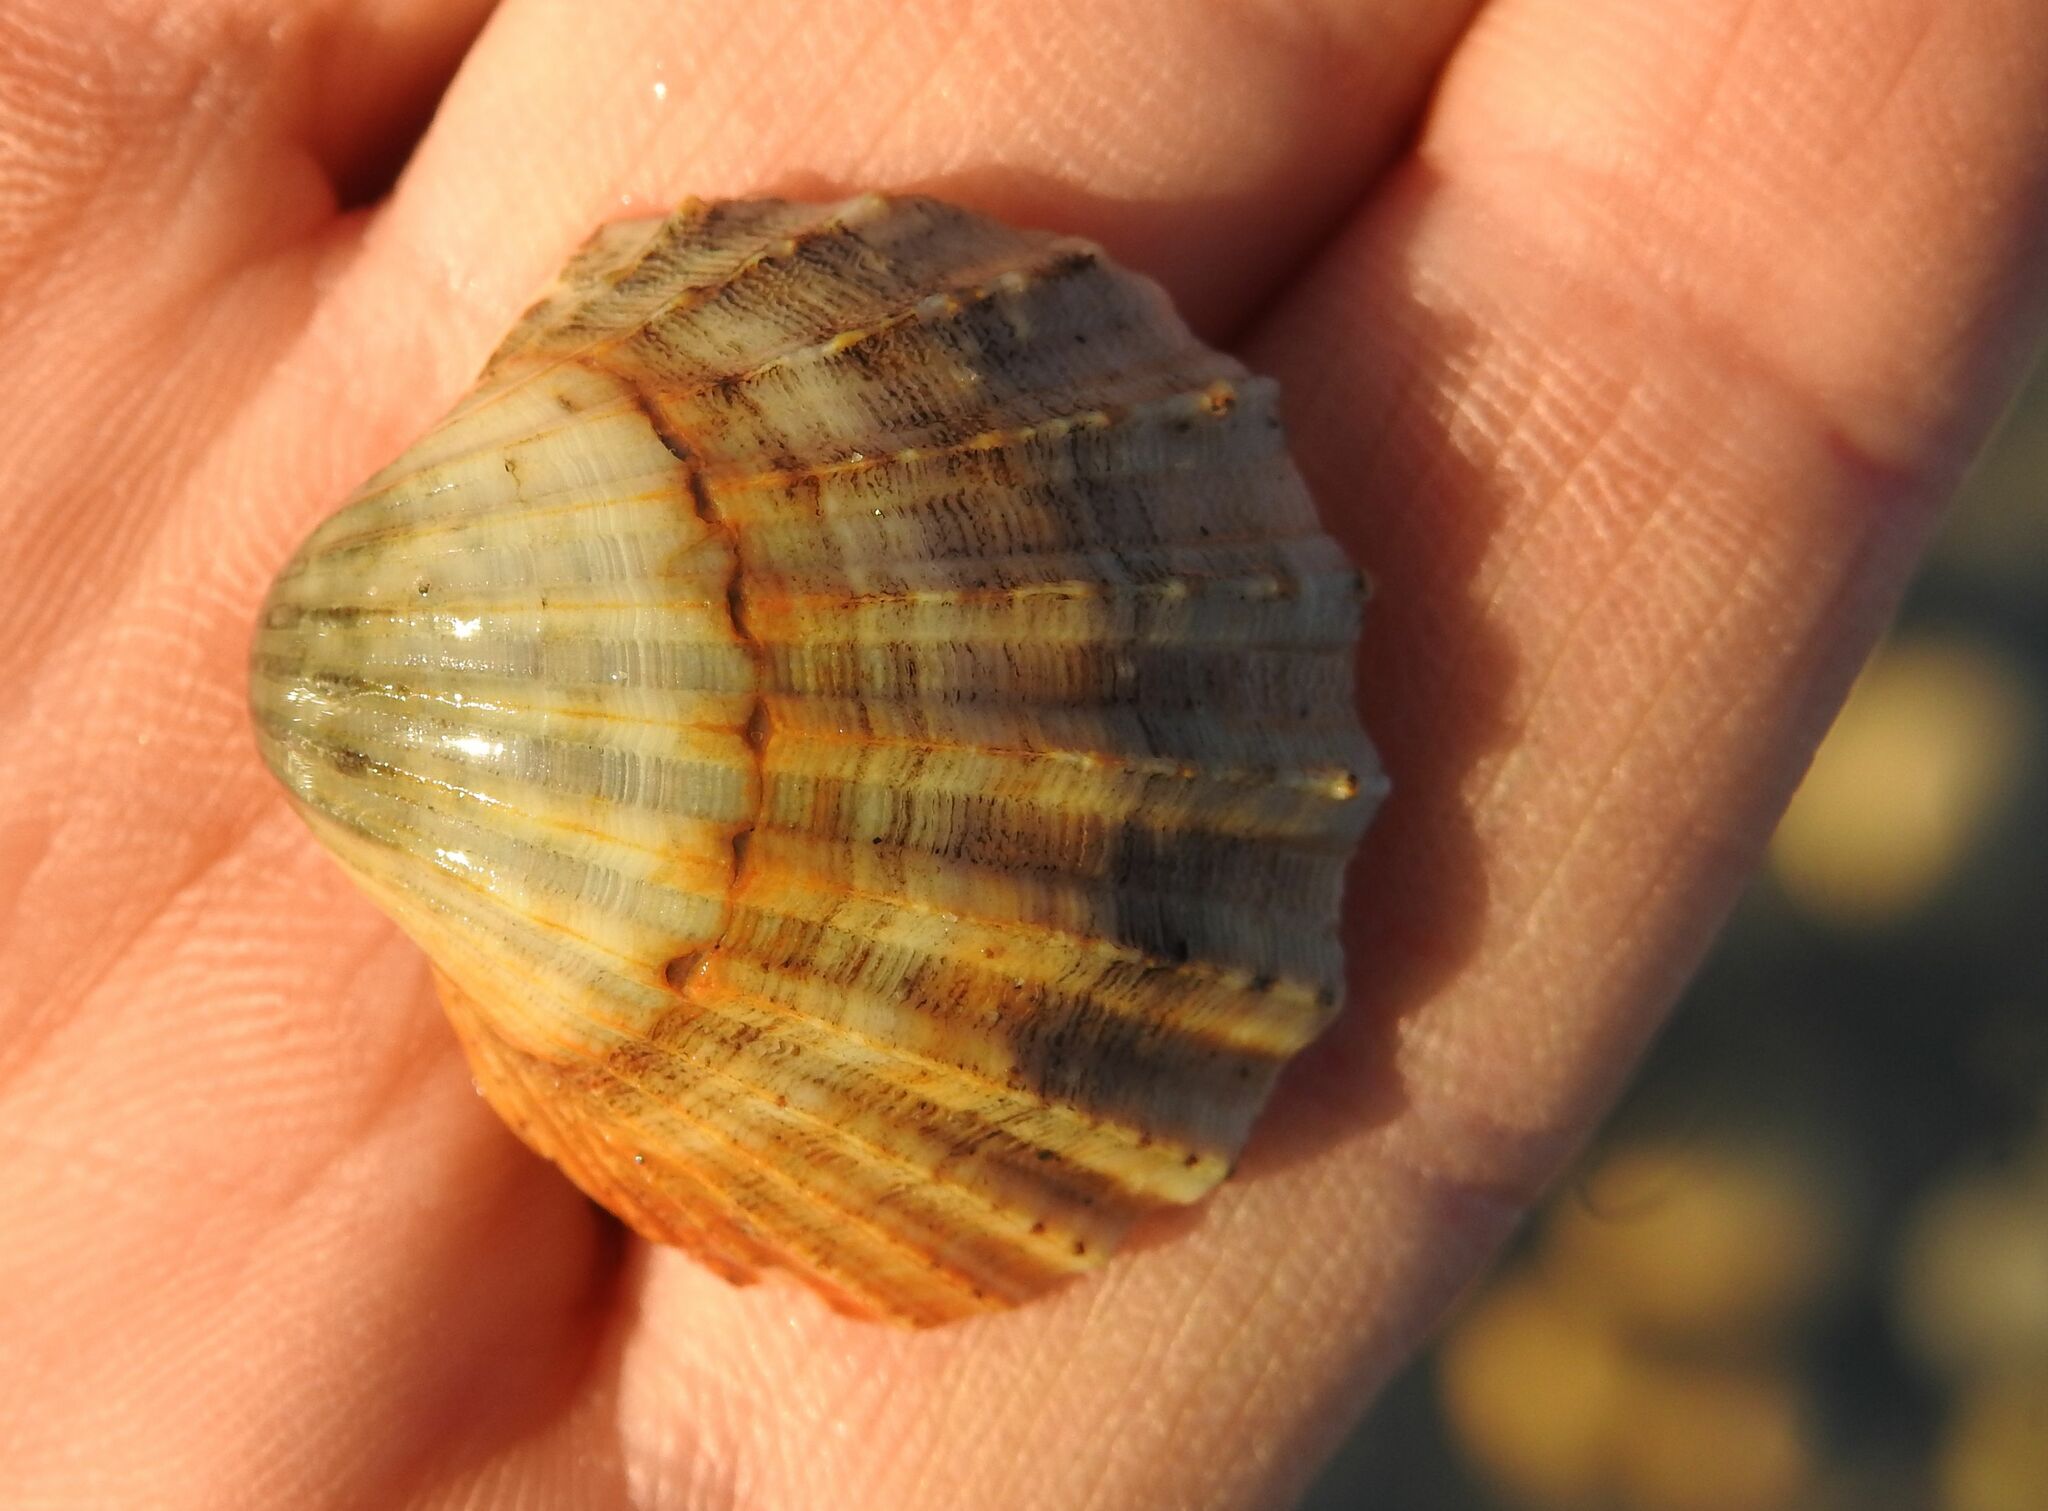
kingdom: Animalia
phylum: Mollusca
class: Bivalvia
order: Cardiida
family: Cardiidae
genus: Acanthocardia
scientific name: Acanthocardia paucicostata
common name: Poorly ribbed cockle
